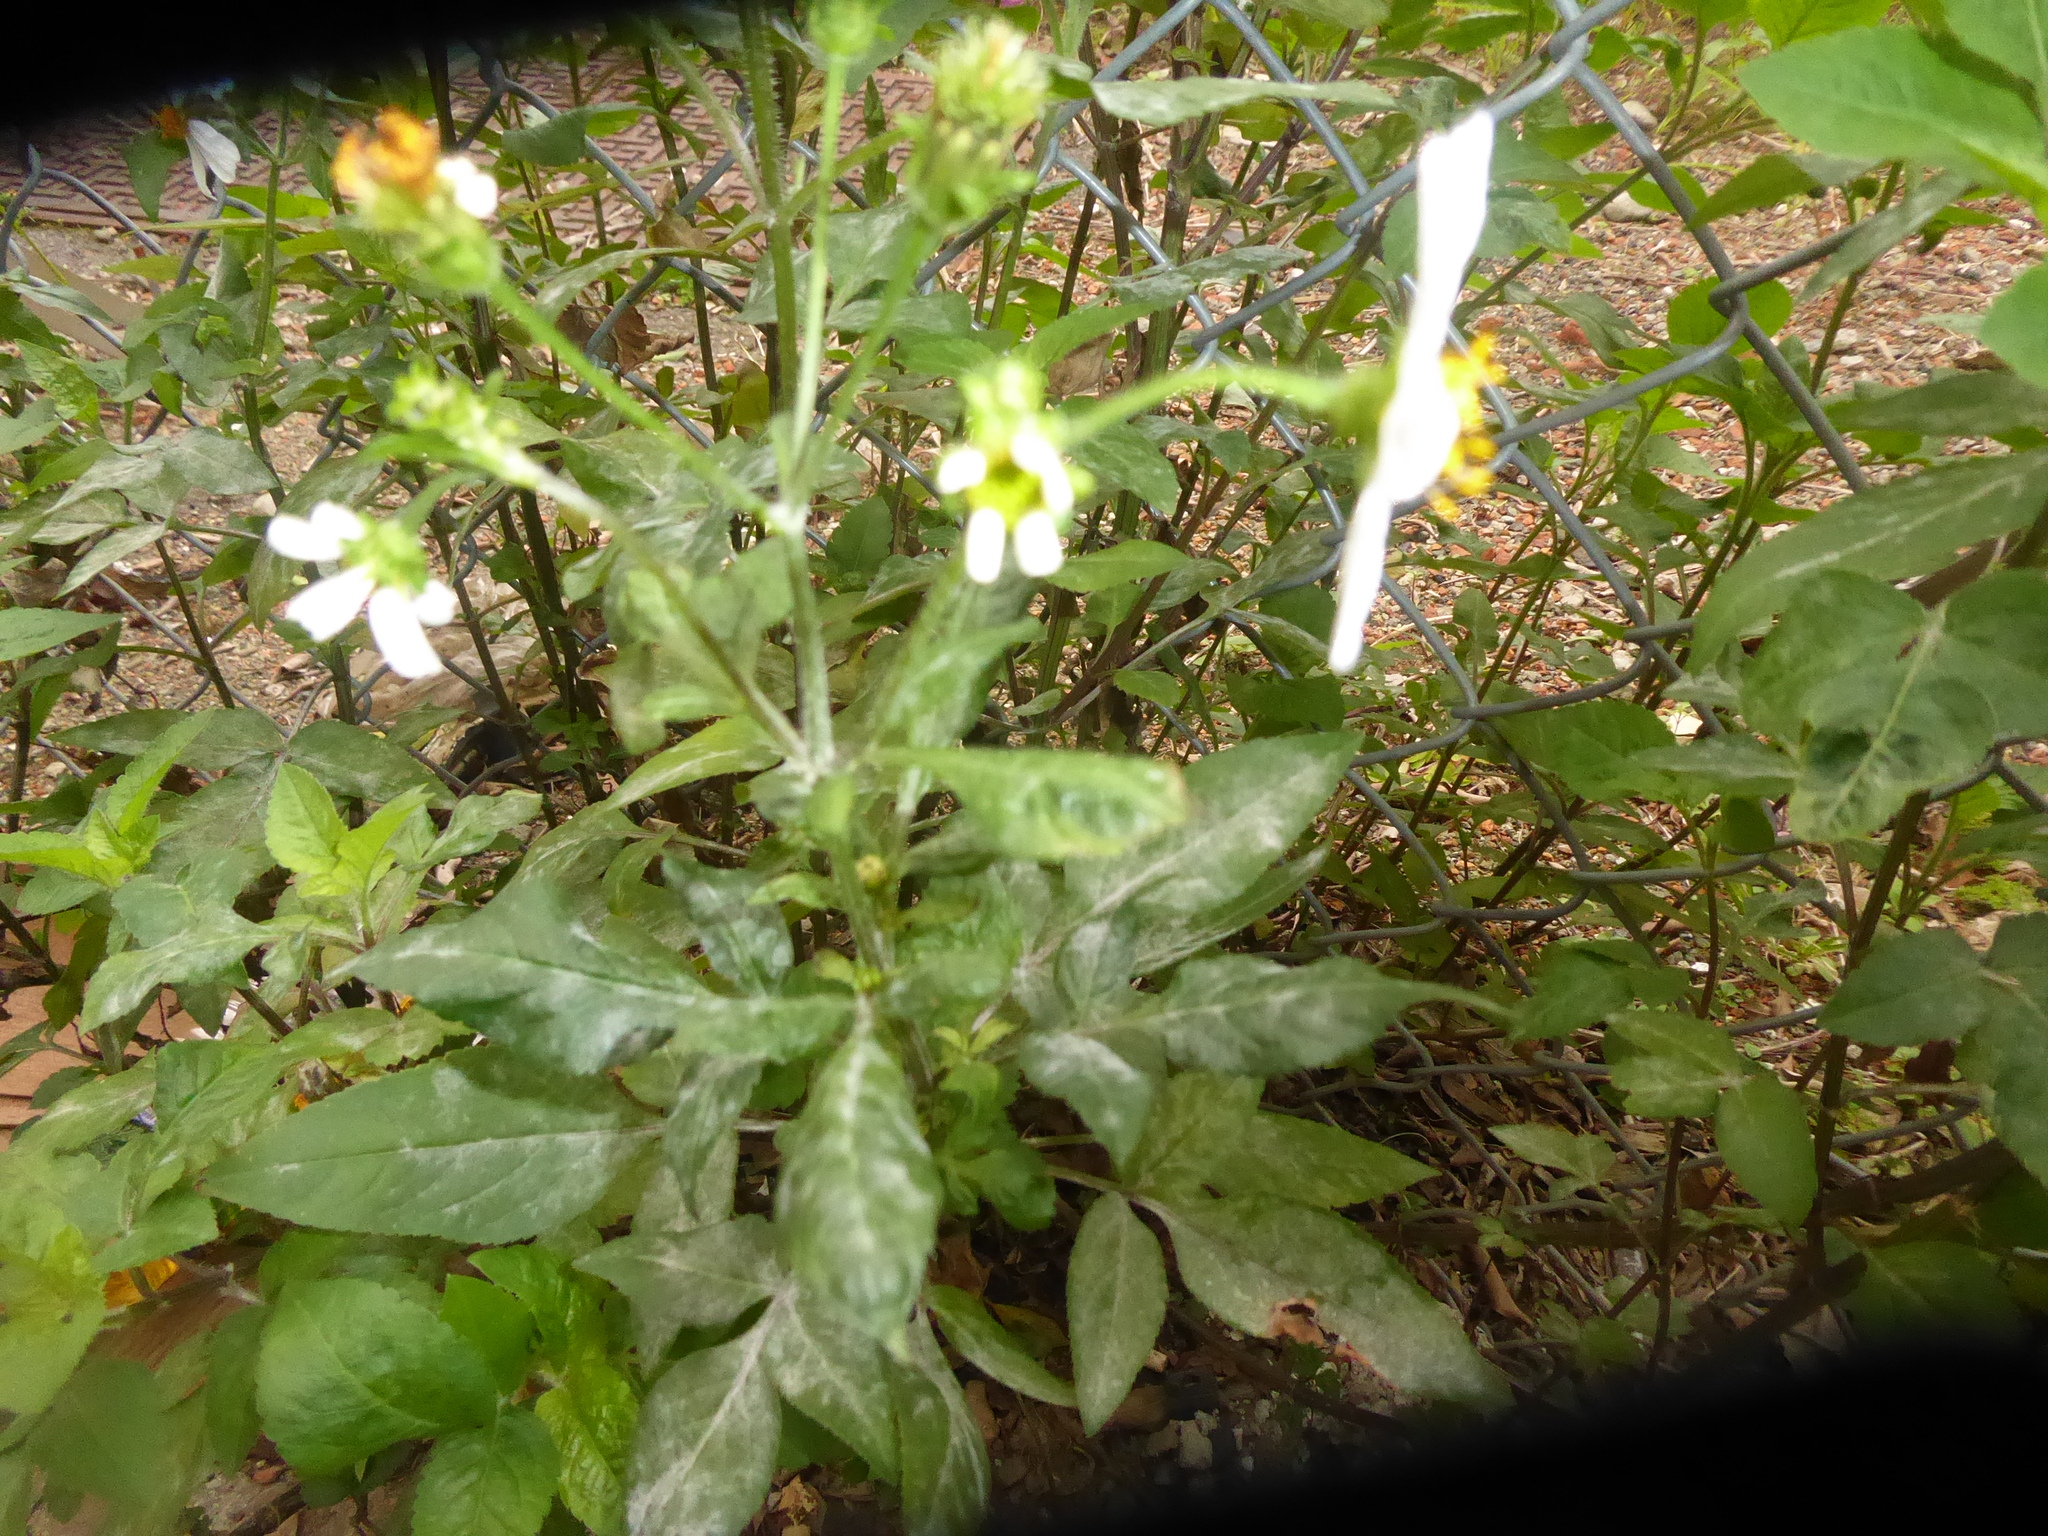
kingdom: Plantae
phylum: Tracheophyta
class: Magnoliopsida
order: Asterales
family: Asteraceae
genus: Bidens
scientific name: Bidens alba
